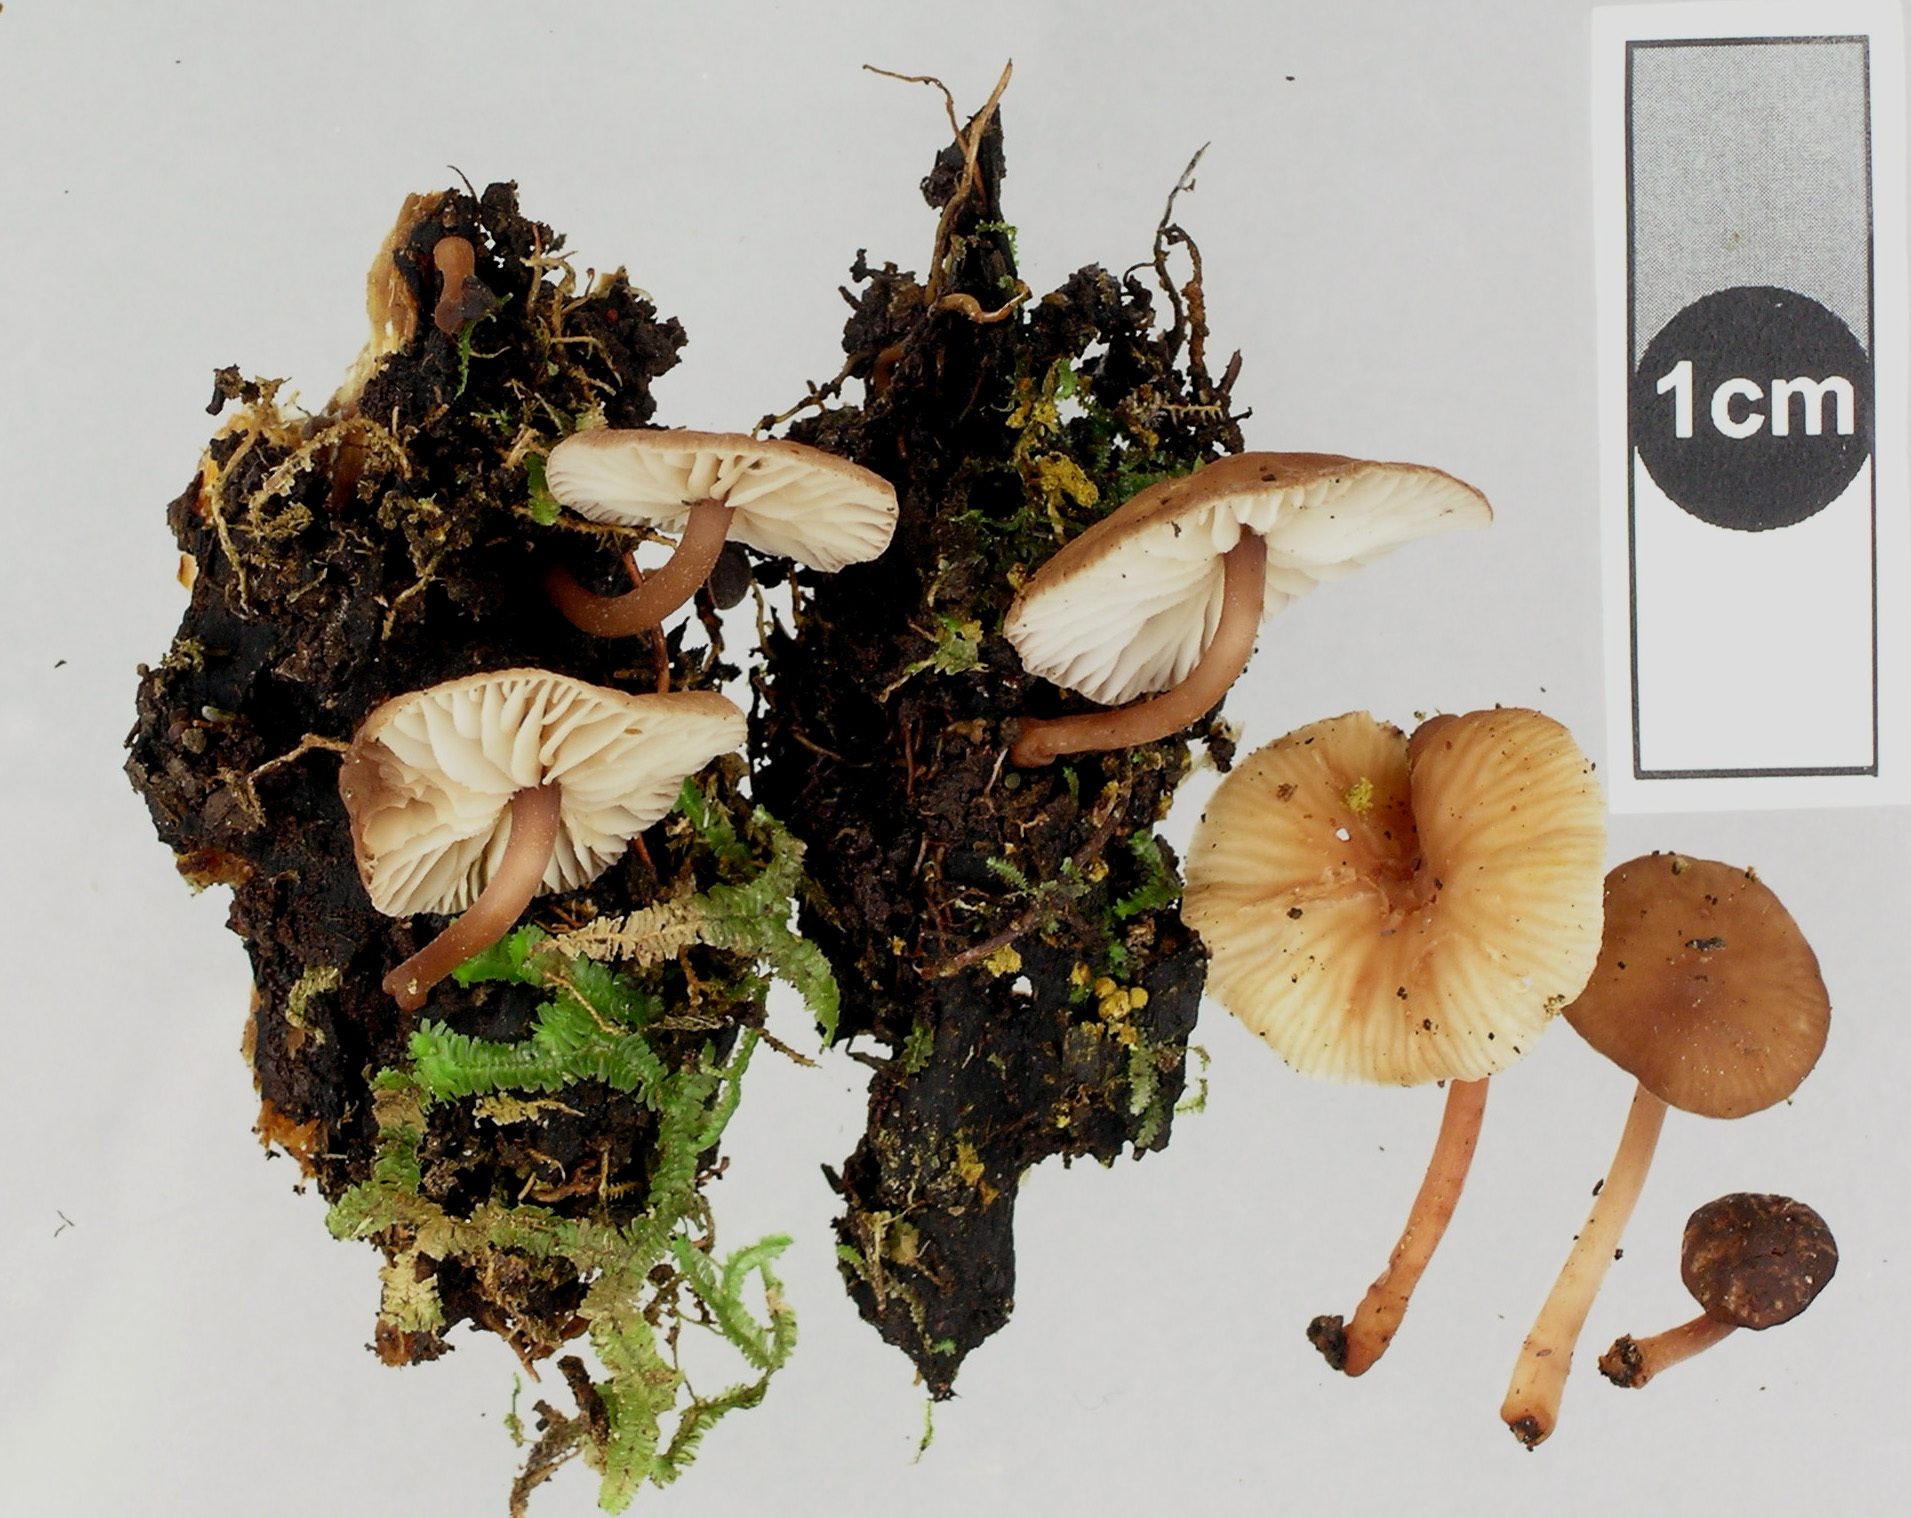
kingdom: Fungi
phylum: Basidiomycota
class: Agaricomycetes
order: Agaricales
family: Marasmiaceae
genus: Marasmius
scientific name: Marasmius otagensis
